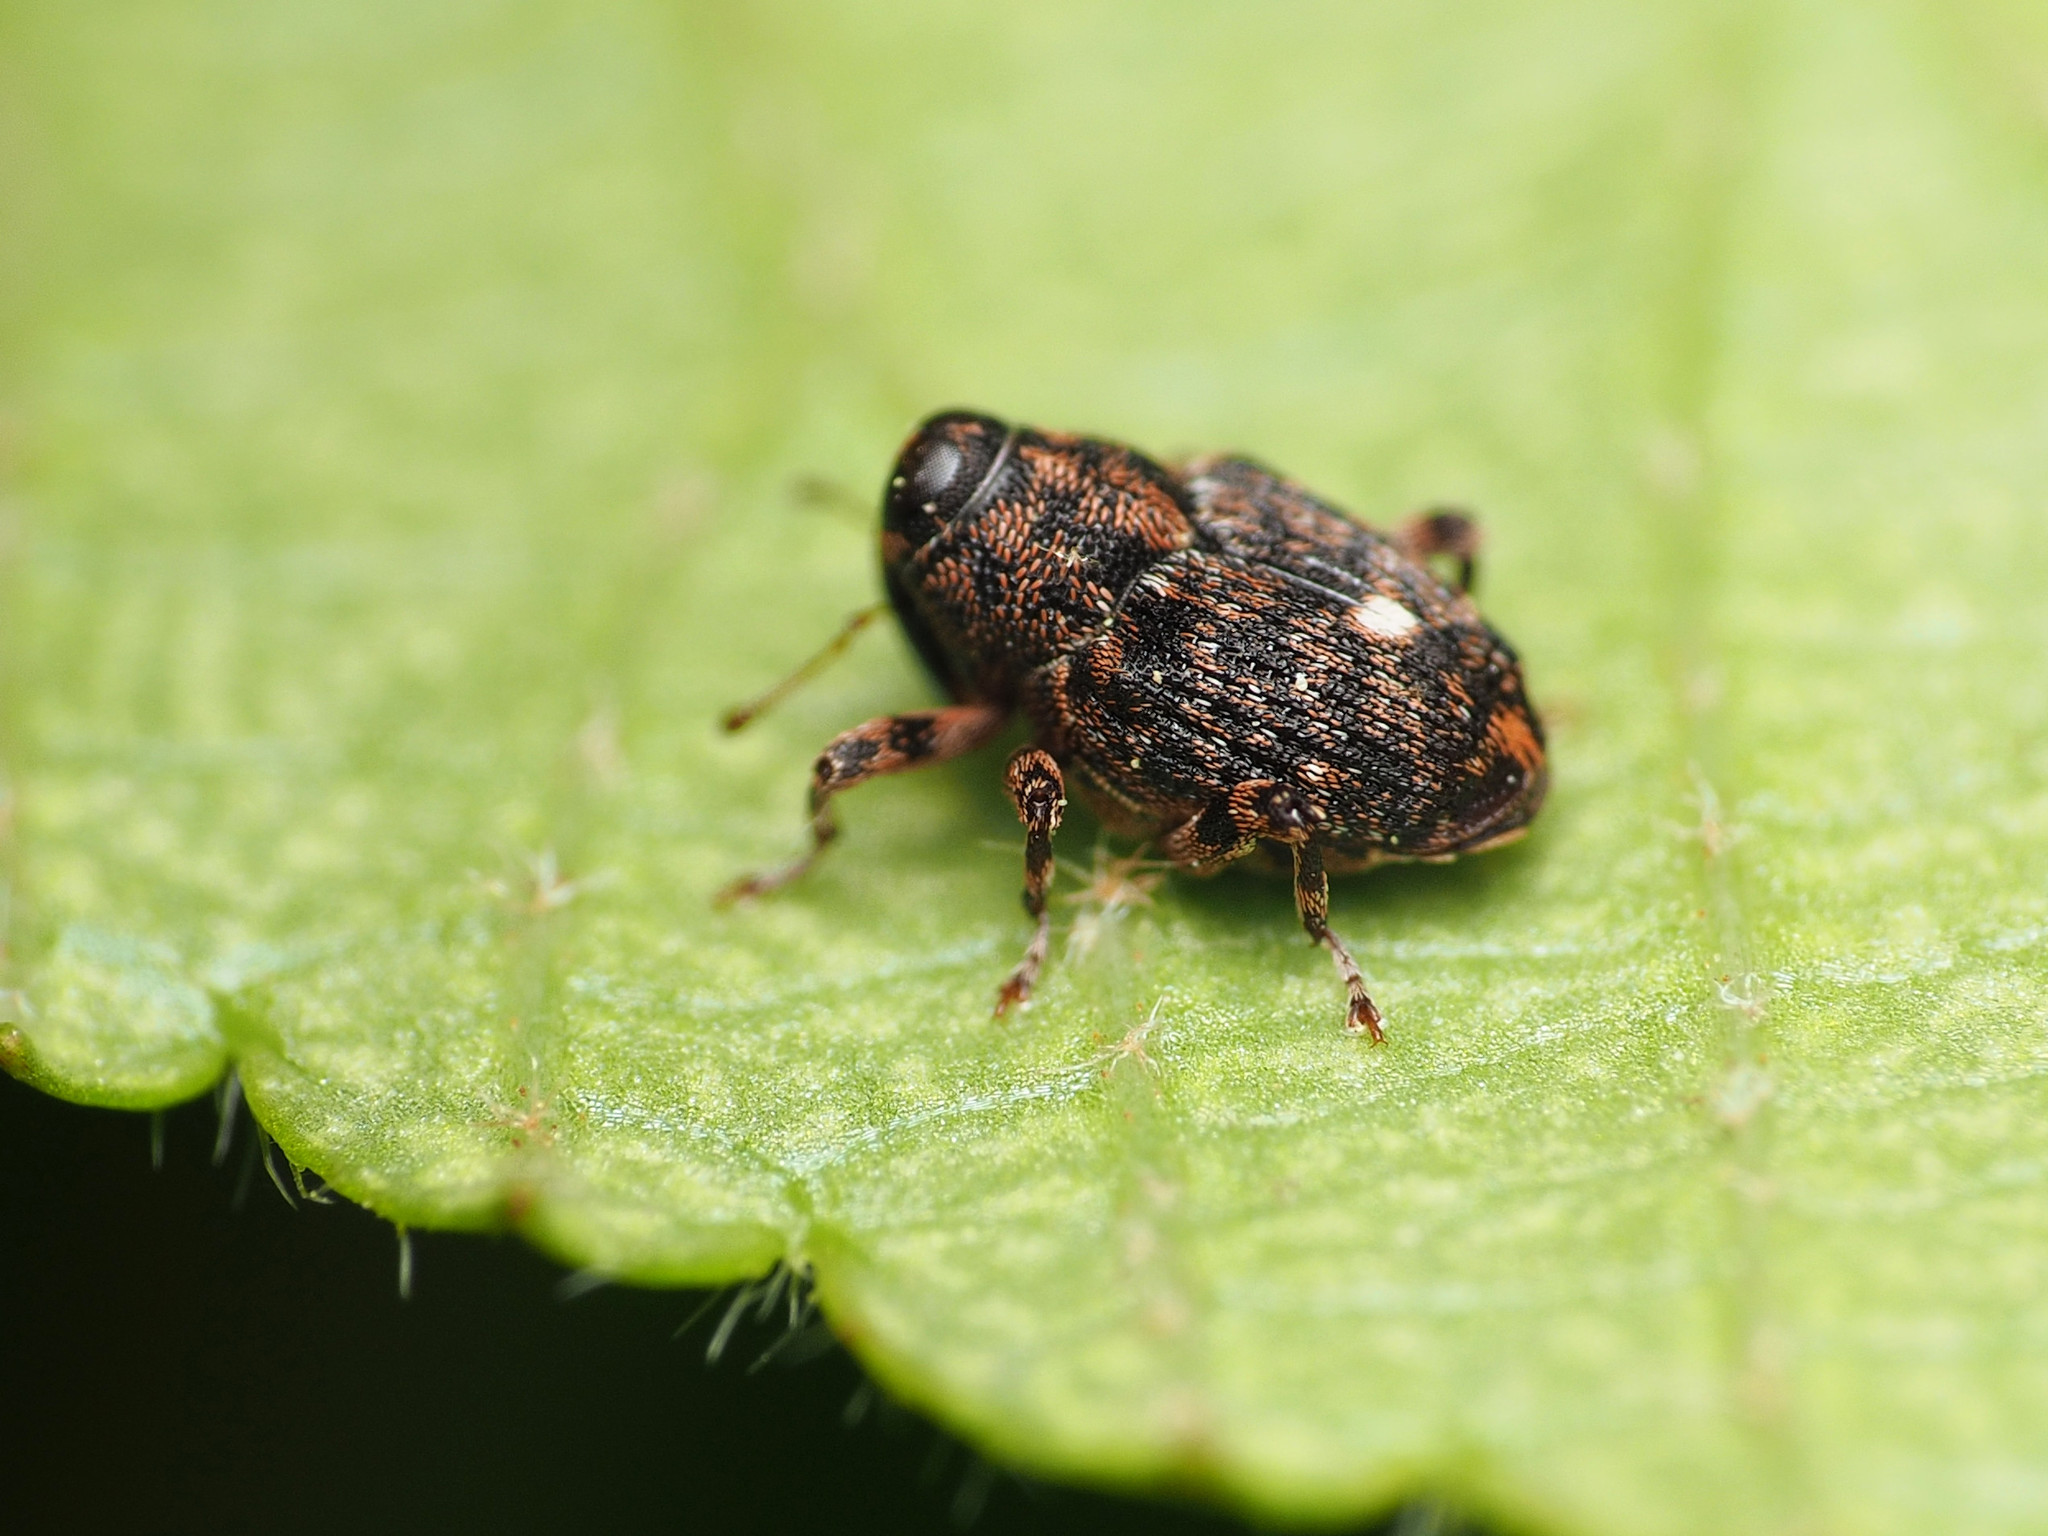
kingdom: Animalia
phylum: Arthropoda
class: Insecta
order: Coleoptera
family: Curculionidae
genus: Lechriops
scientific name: Lechriops oculatus
